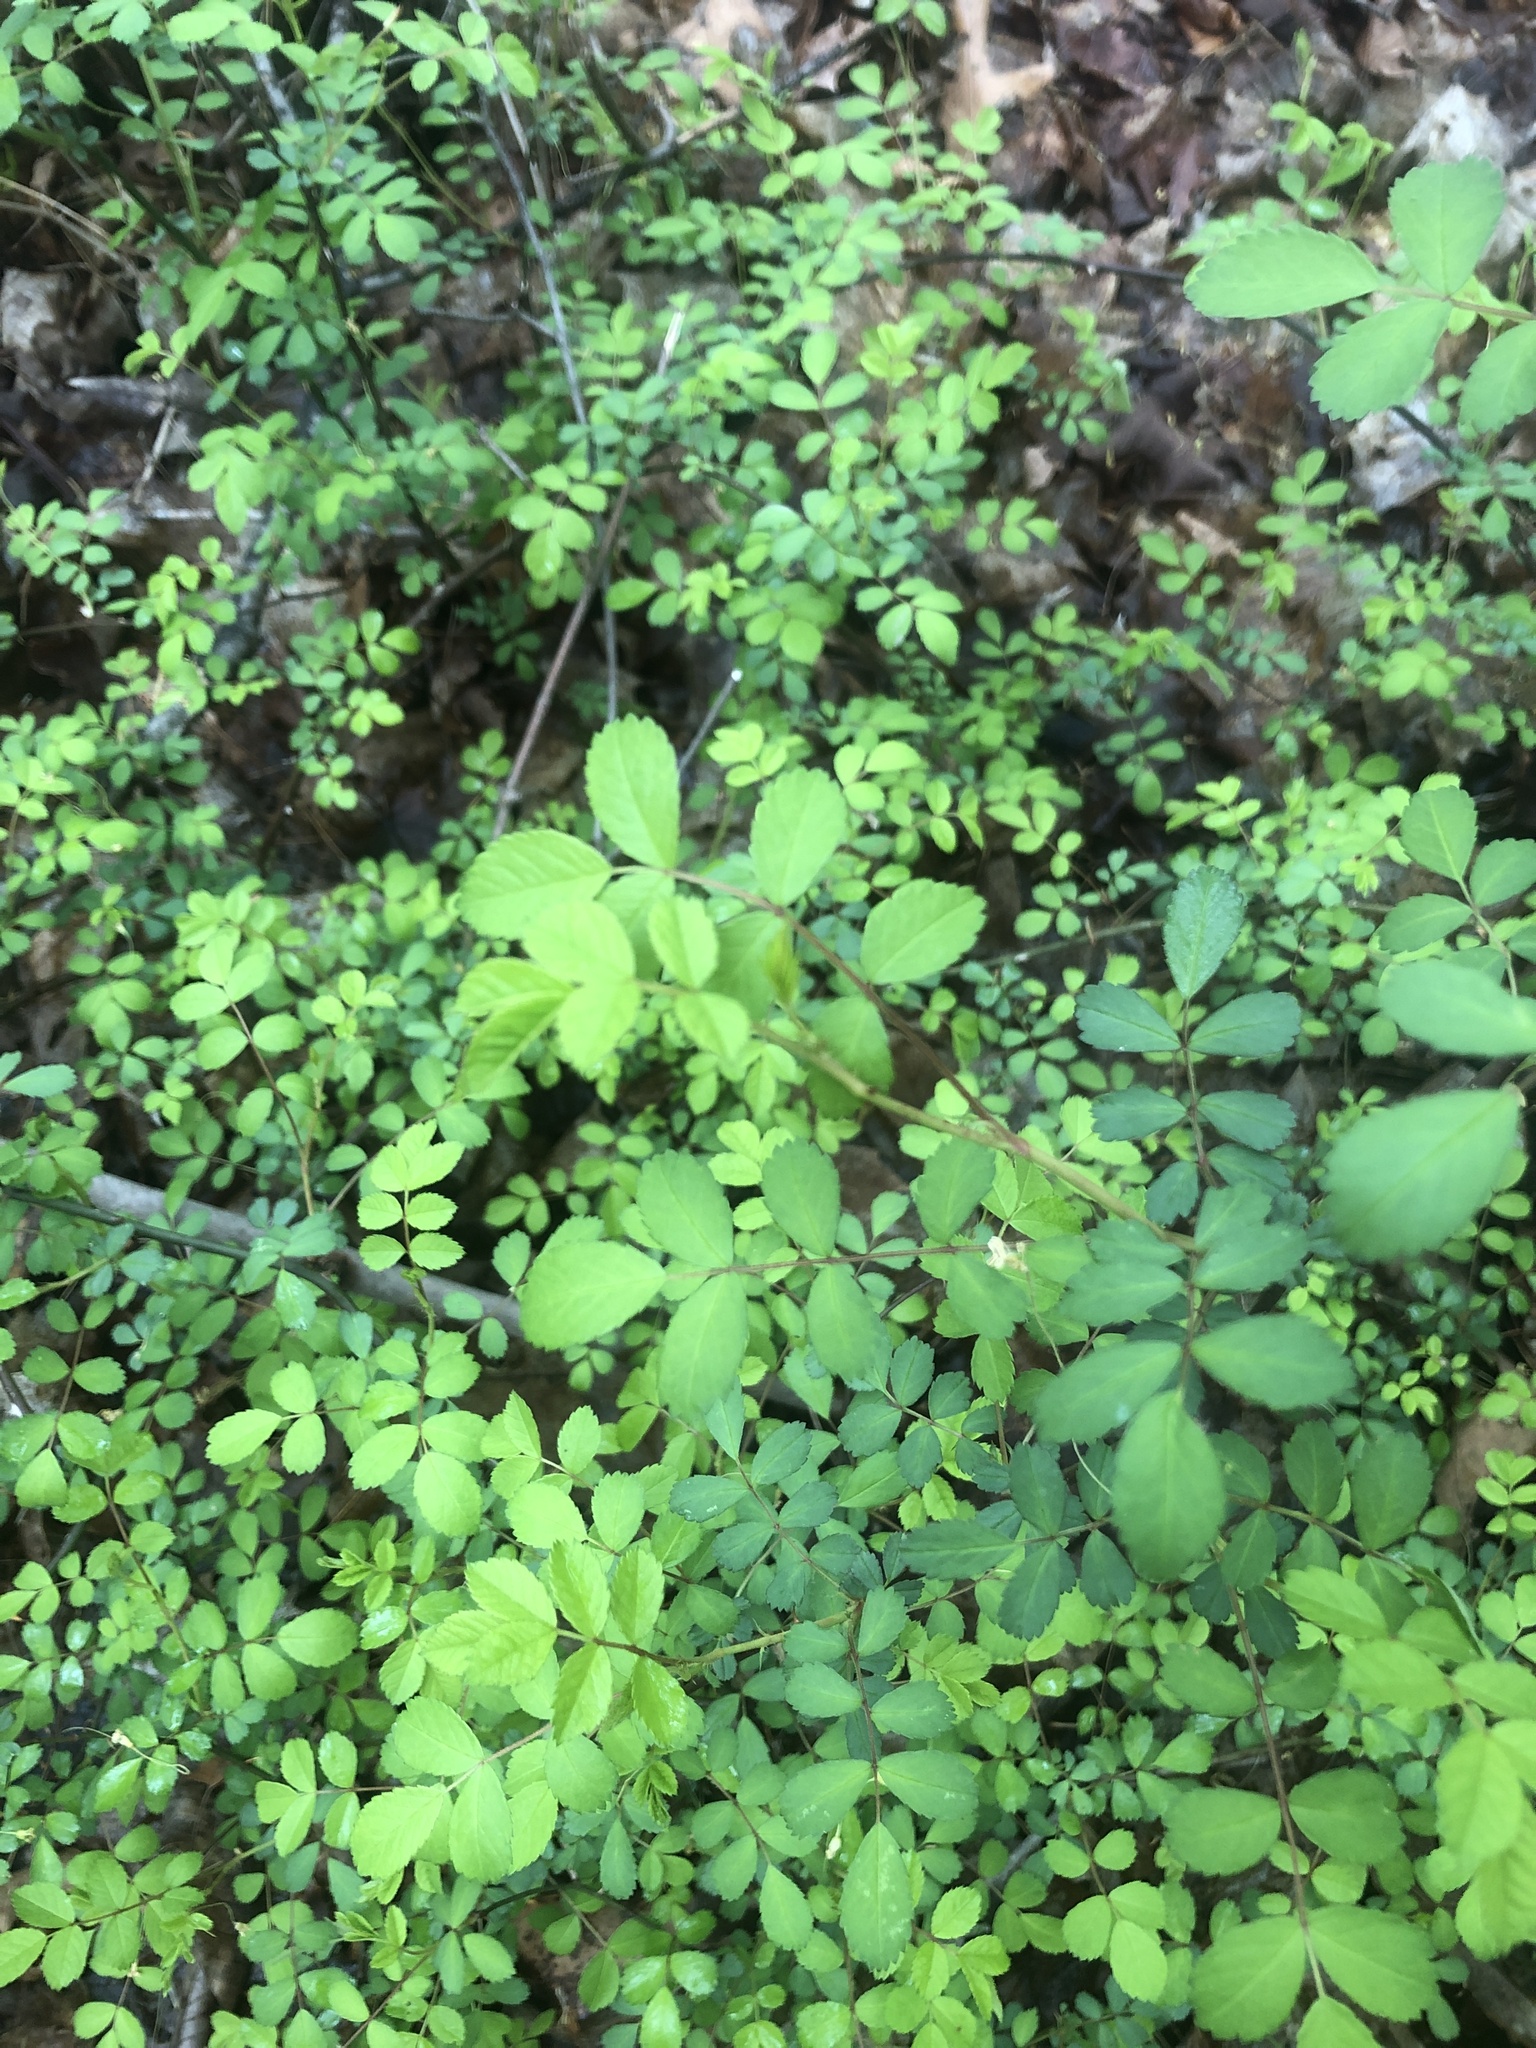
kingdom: Plantae
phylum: Tracheophyta
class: Magnoliopsida
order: Rosales
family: Rosaceae
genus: Rosa
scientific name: Rosa multiflora
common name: Multiflora rose
